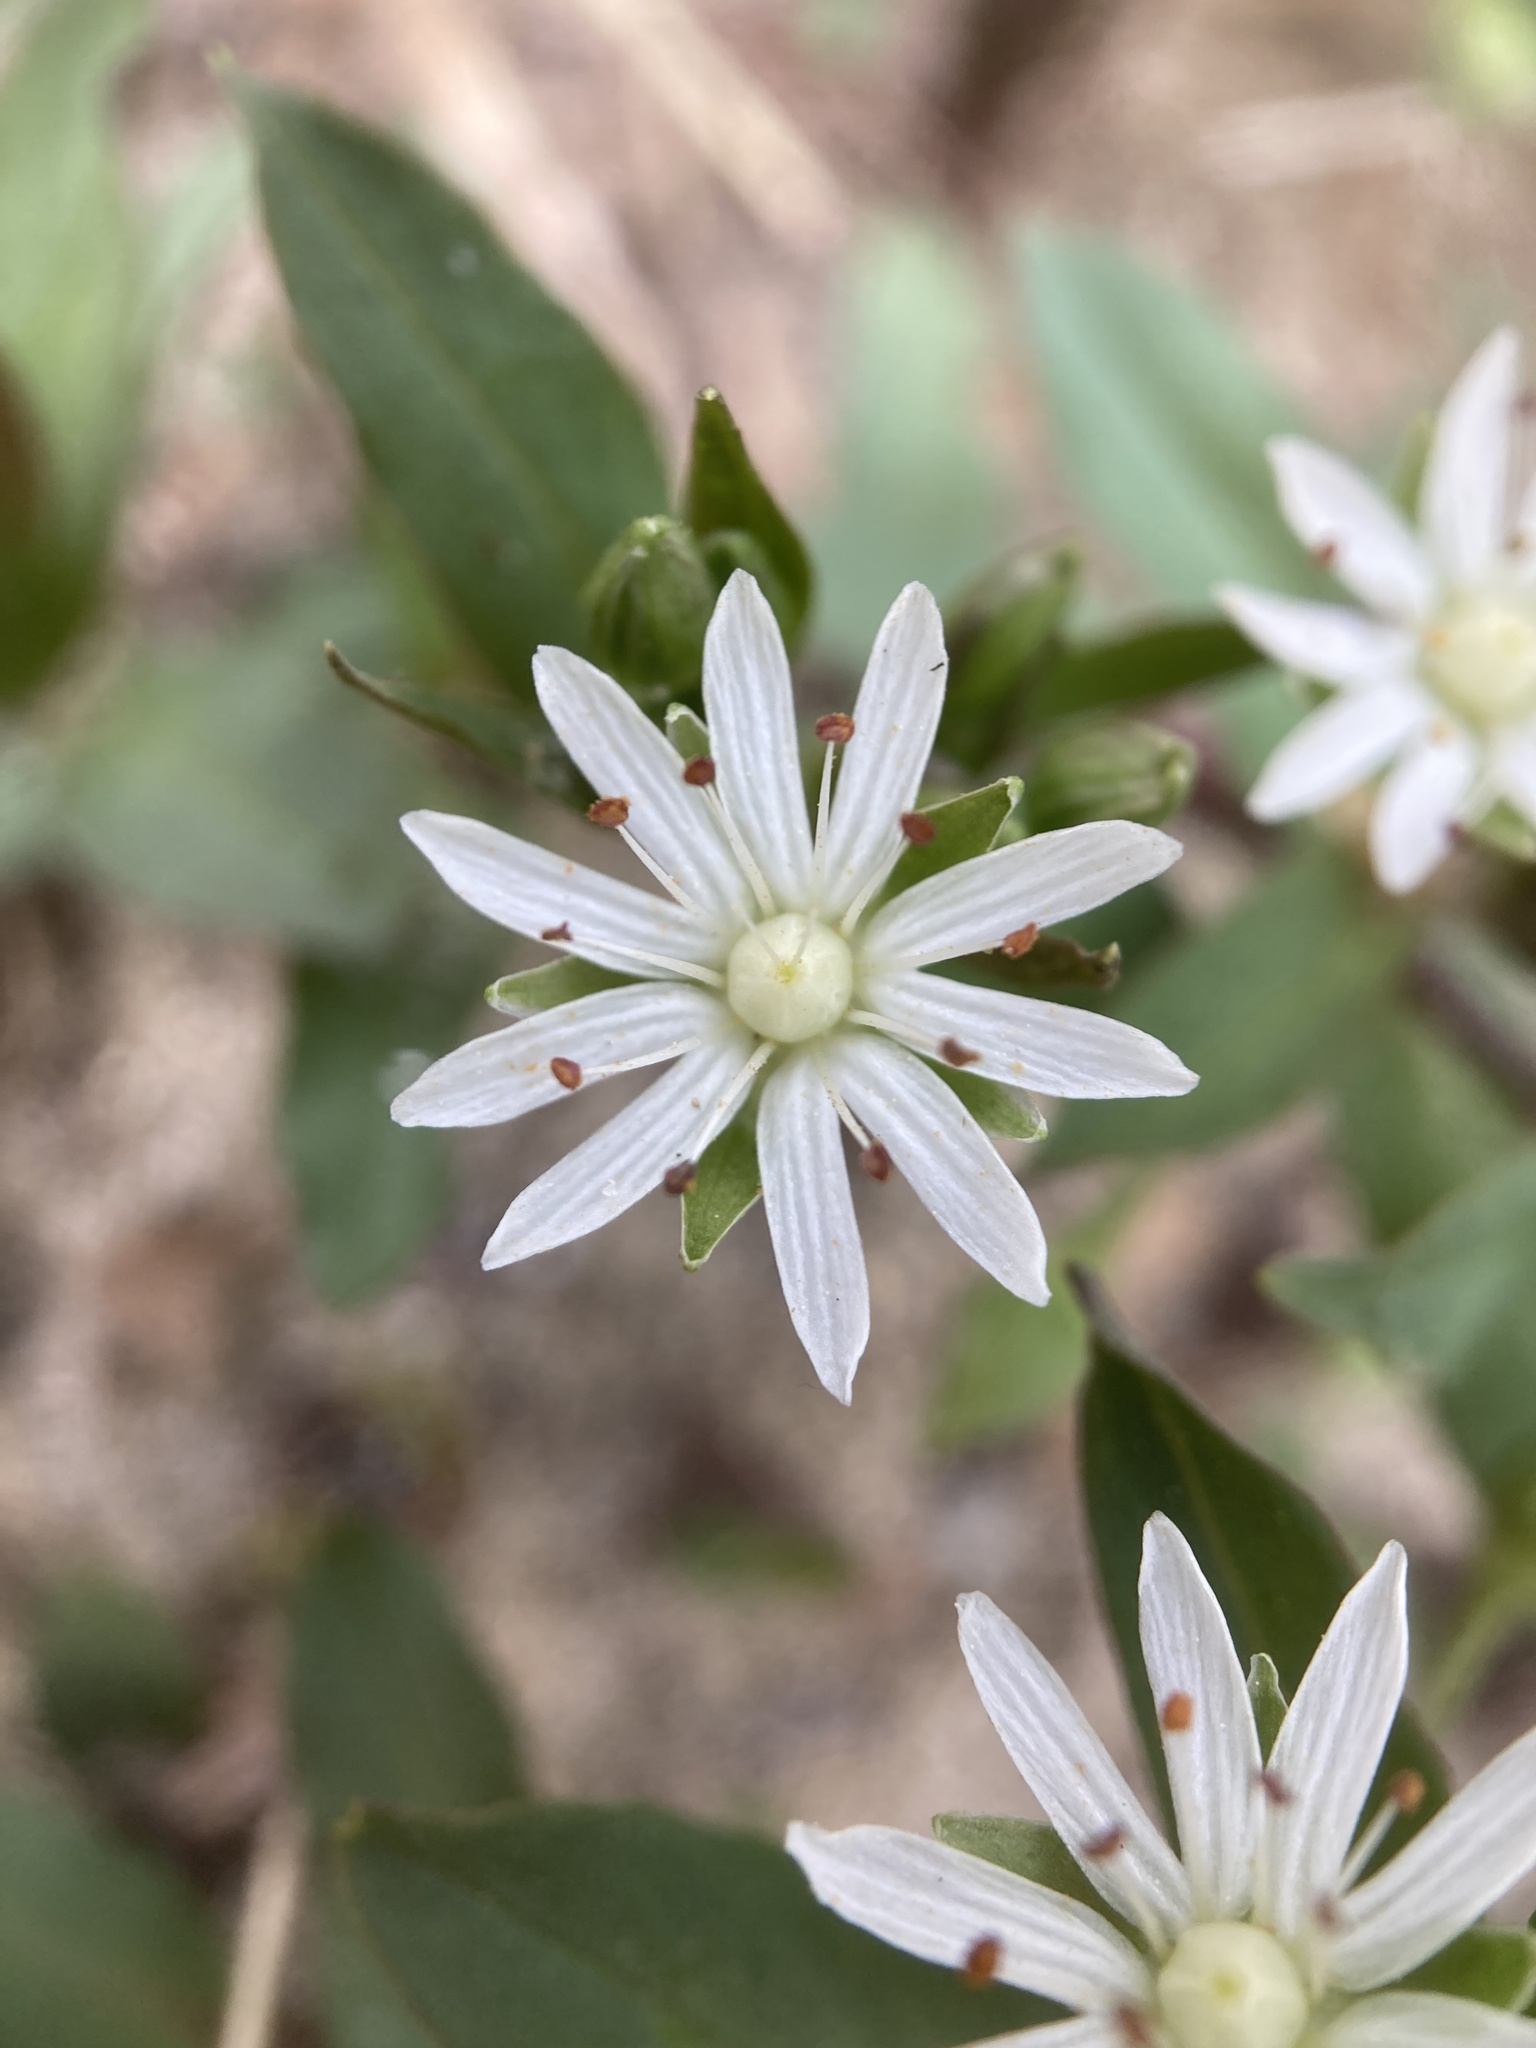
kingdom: Plantae
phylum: Tracheophyta
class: Magnoliopsida
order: Caryophyllales
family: Caryophyllaceae
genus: Stellaria
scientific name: Stellaria pubera
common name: Star chickweed
